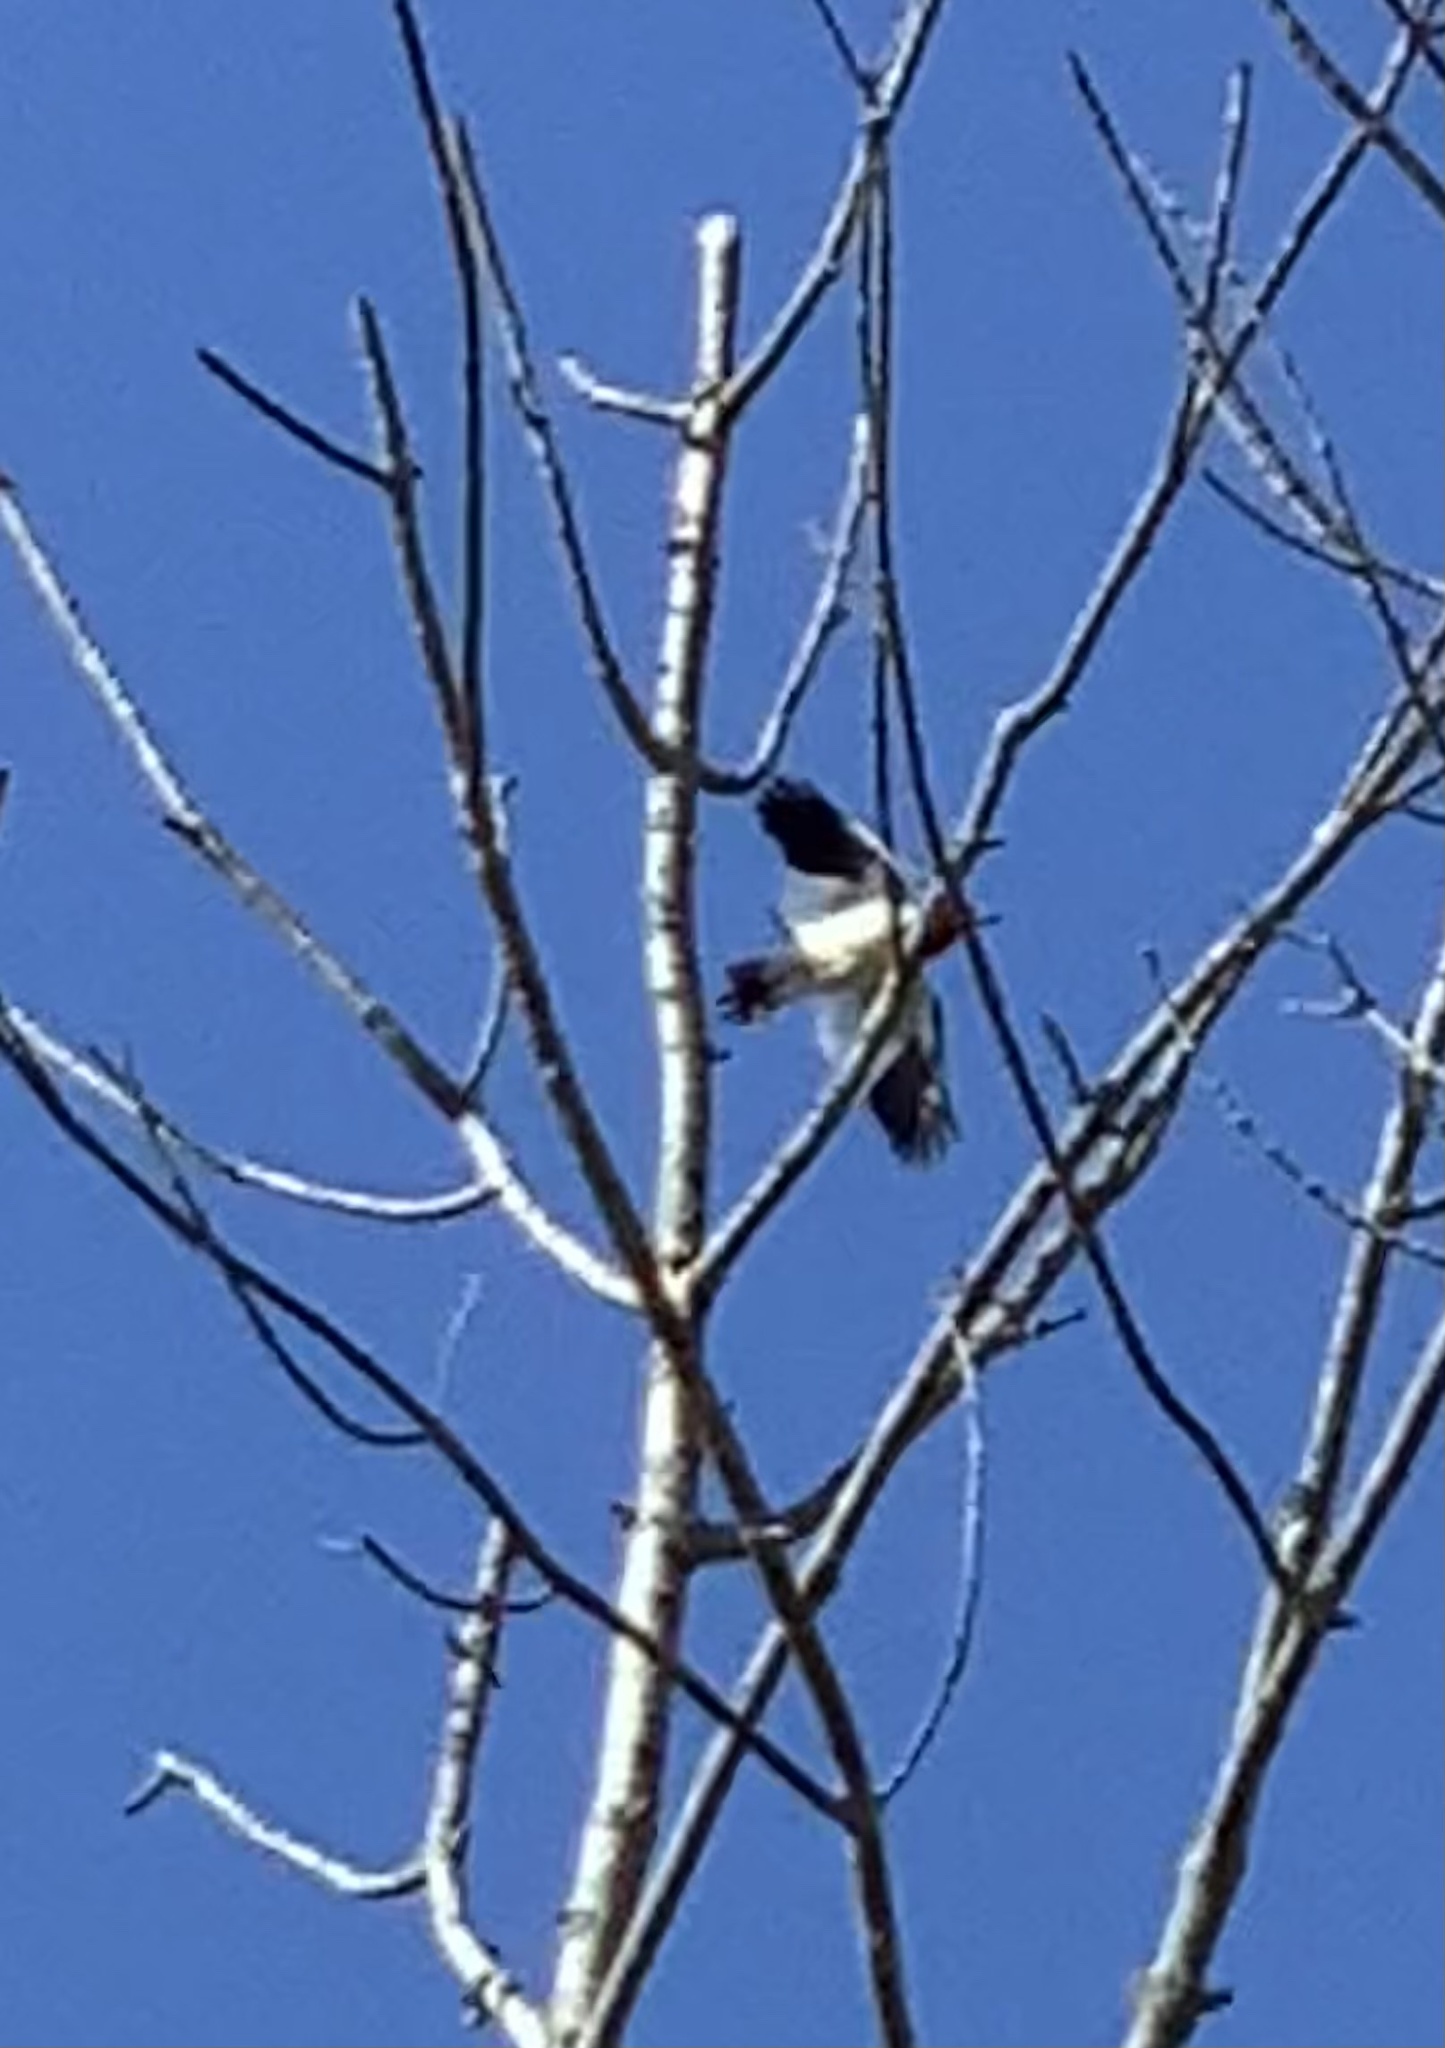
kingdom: Animalia
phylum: Chordata
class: Aves
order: Piciformes
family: Picidae
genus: Melanerpes
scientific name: Melanerpes erythrocephalus
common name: Red-headed woodpecker
